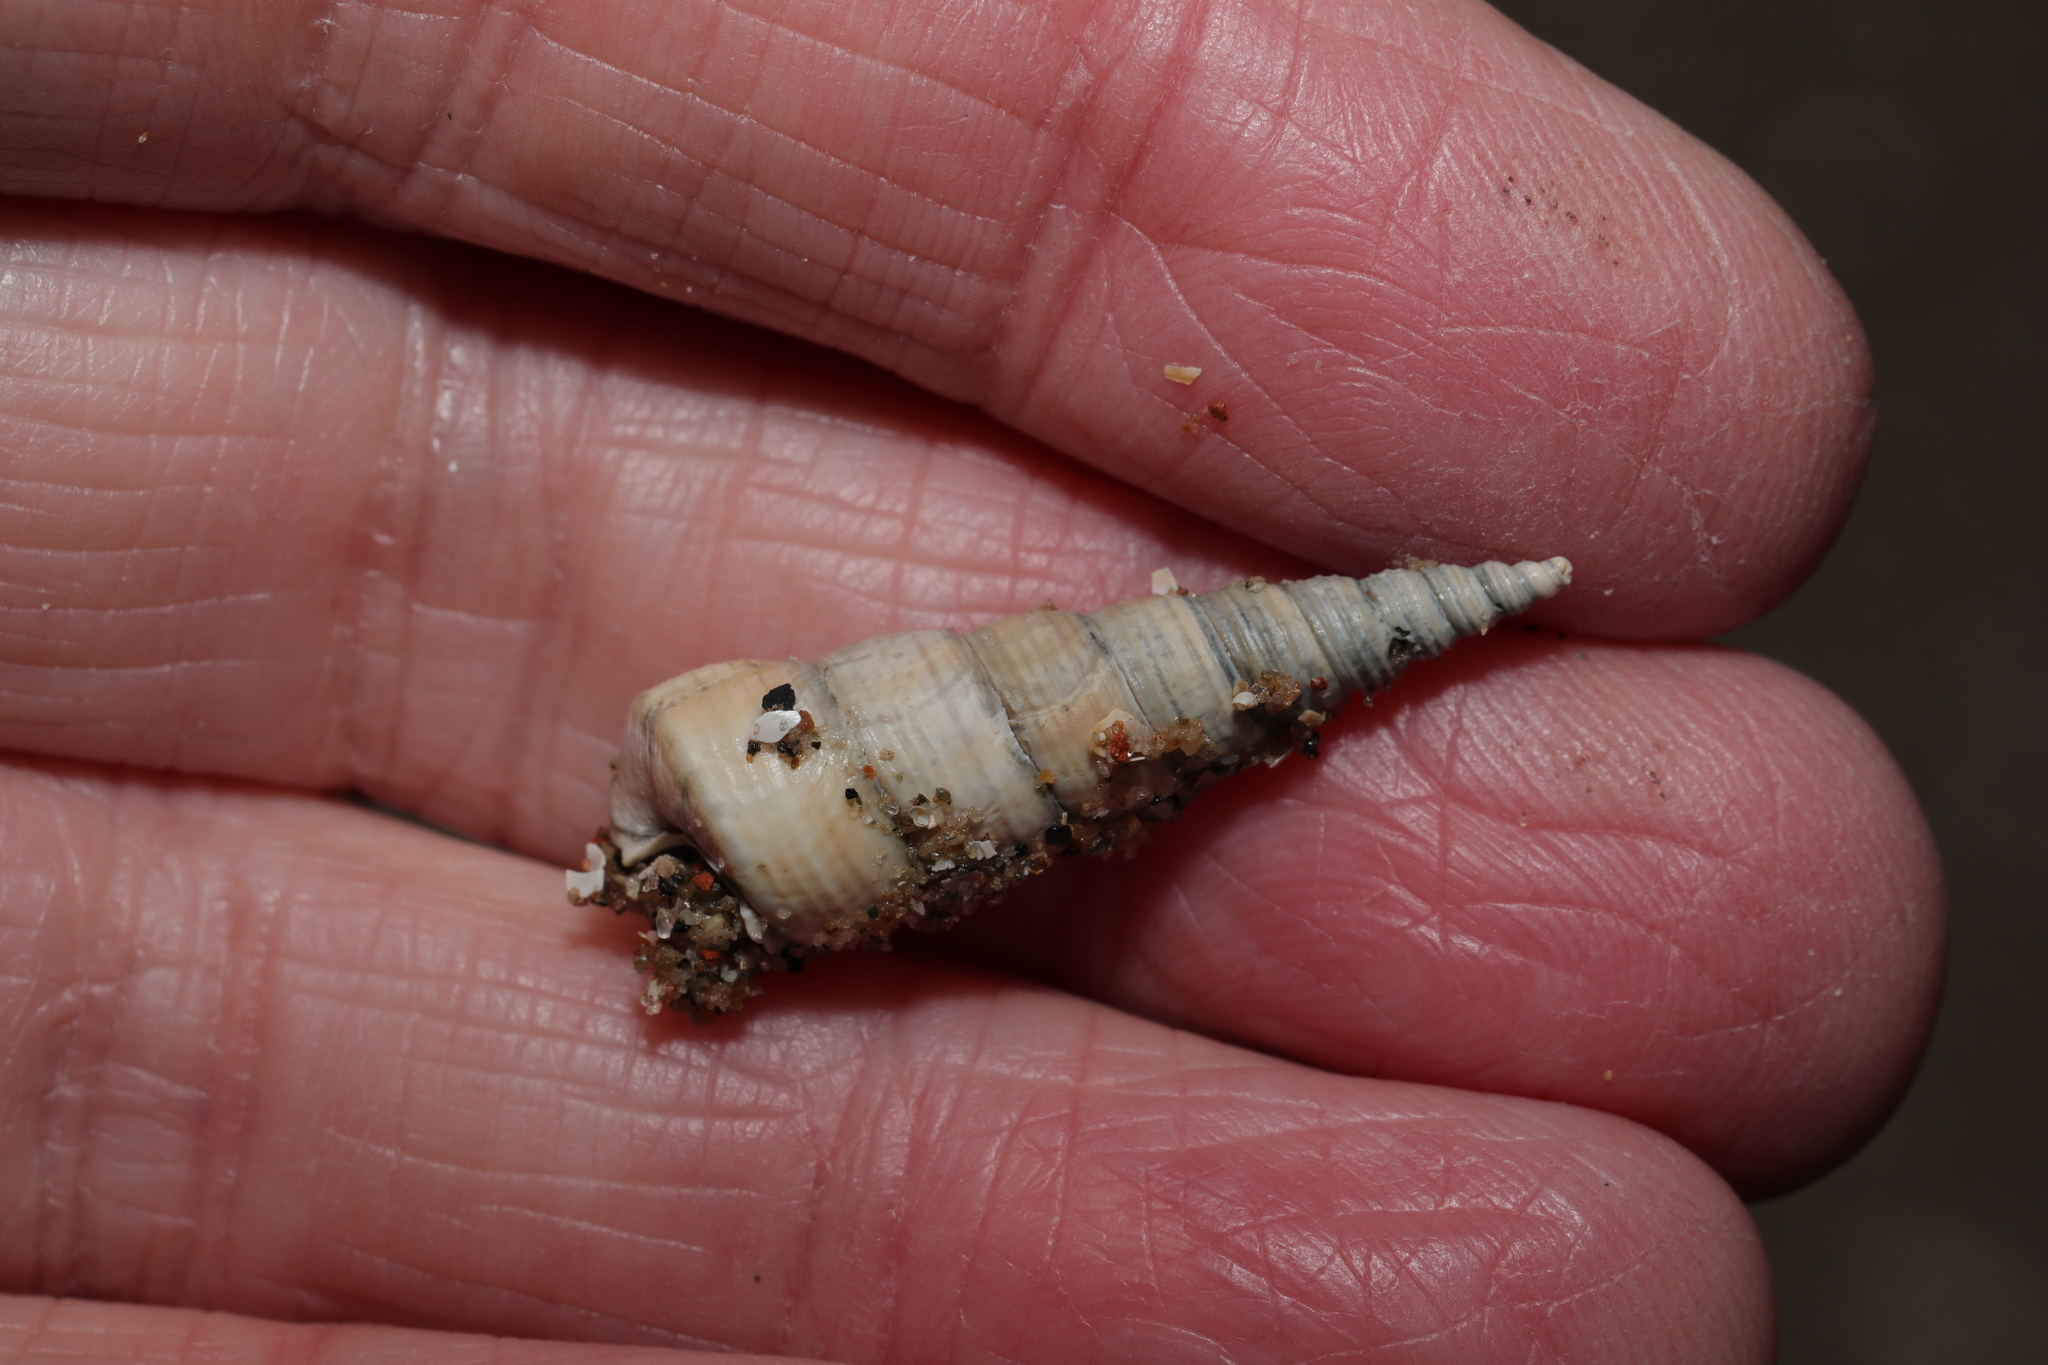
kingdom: Animalia
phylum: Mollusca
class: Gastropoda
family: Turritellidae
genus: Turritellinella
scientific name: Turritellinella tricarinata
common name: Auger shell
